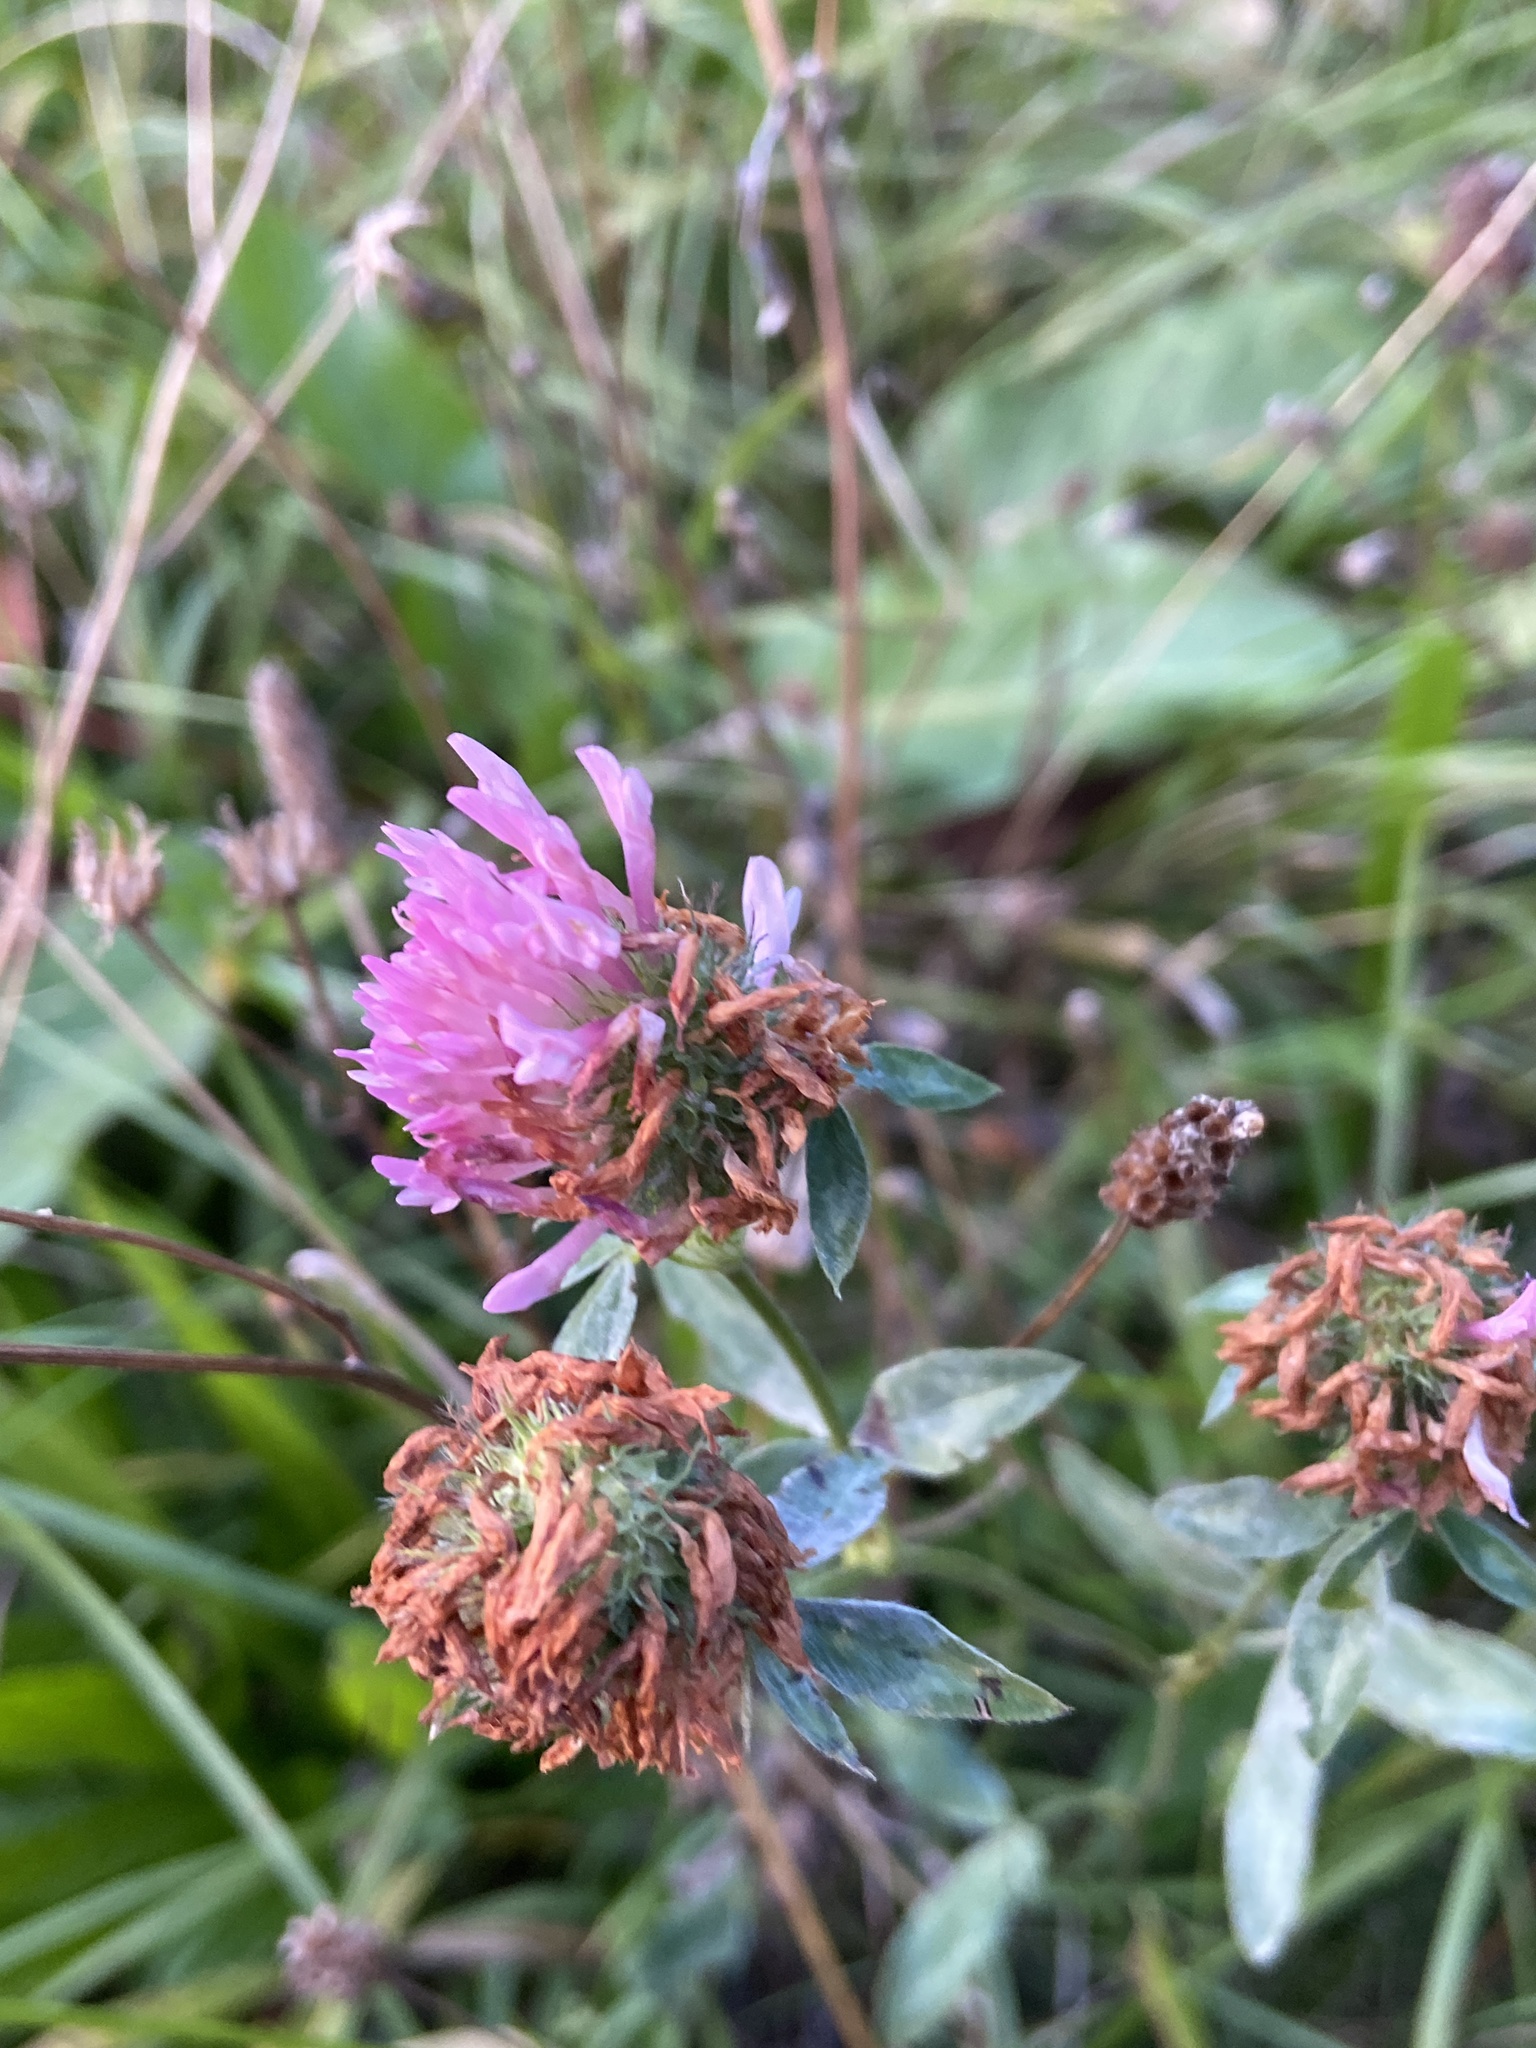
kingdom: Plantae
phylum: Tracheophyta
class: Magnoliopsida
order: Fabales
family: Fabaceae
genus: Trifolium
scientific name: Trifolium pratense
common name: Red clover
